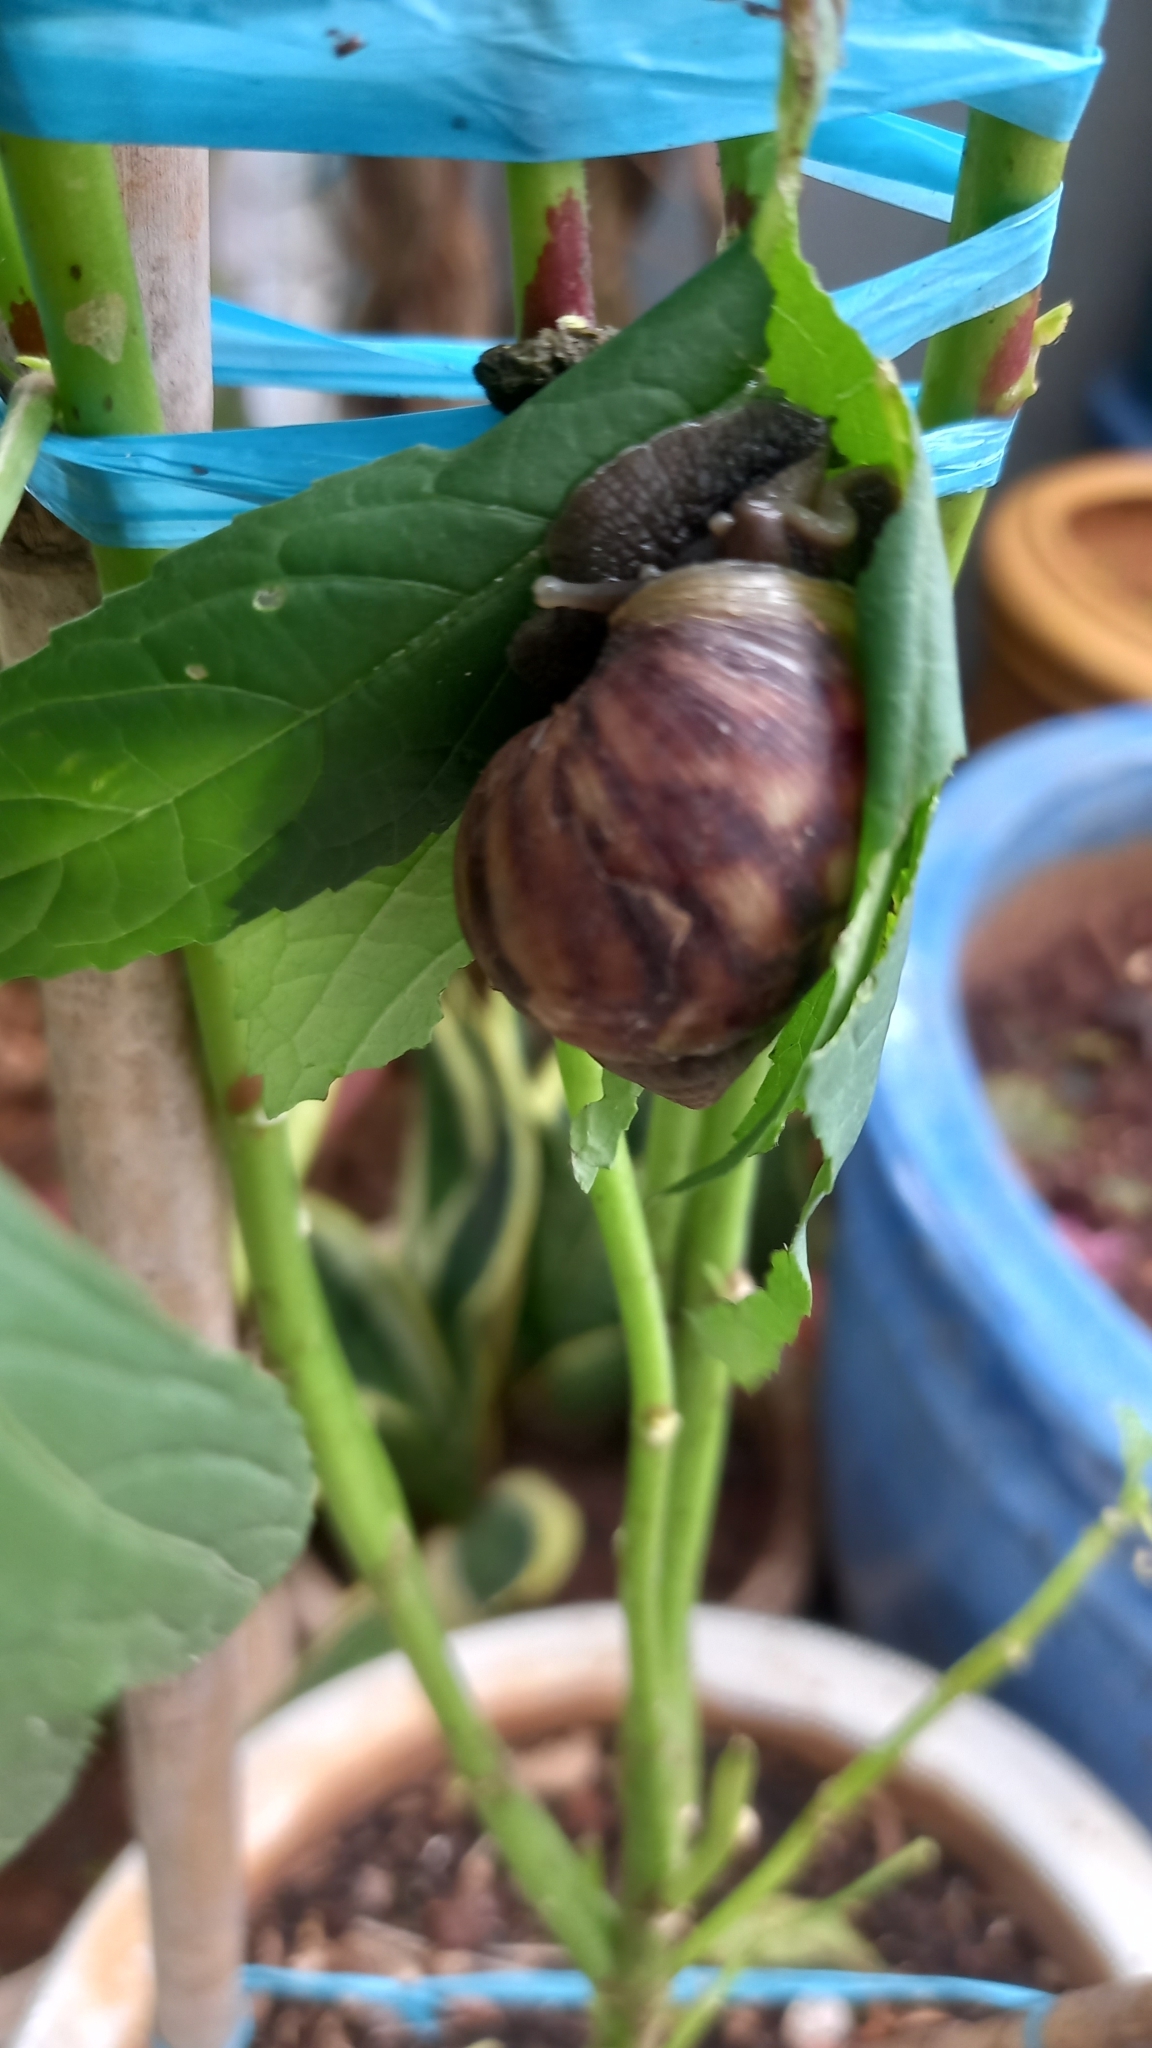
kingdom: Animalia
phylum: Mollusca
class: Gastropoda
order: Stylommatophora
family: Achatinidae
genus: Lissachatina
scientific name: Lissachatina fulica
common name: Giant african snail
